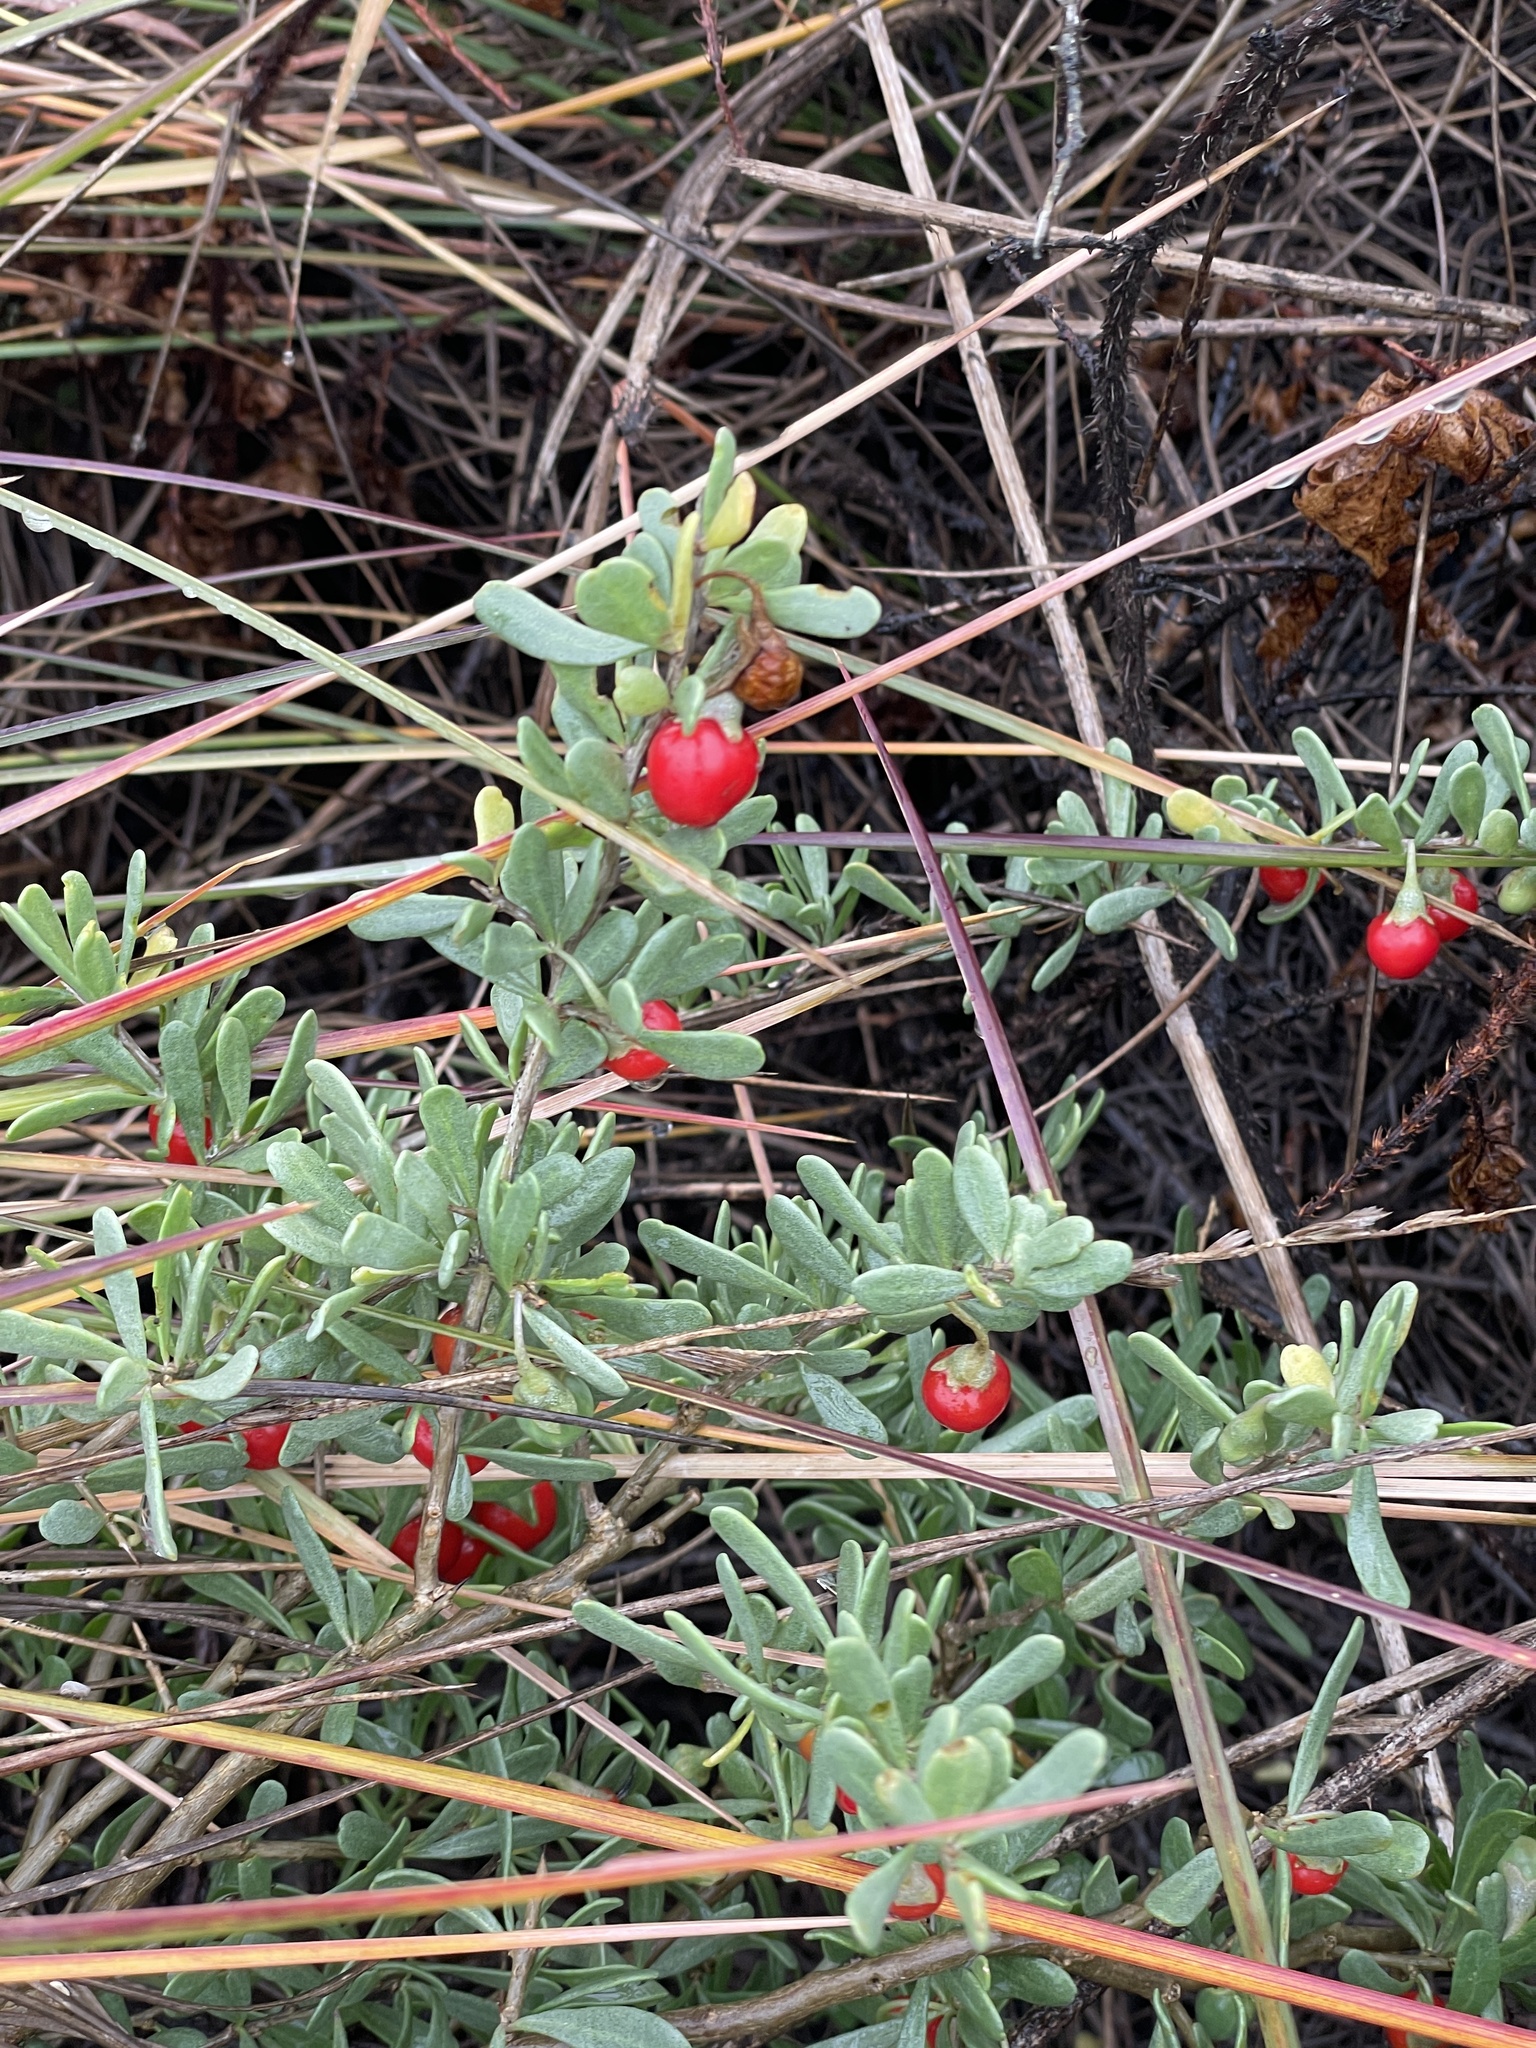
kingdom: Plantae
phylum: Tracheophyta
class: Magnoliopsida
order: Solanales
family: Solanaceae
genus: Lycium
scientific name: Lycium carolinianum
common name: Christmasberry
